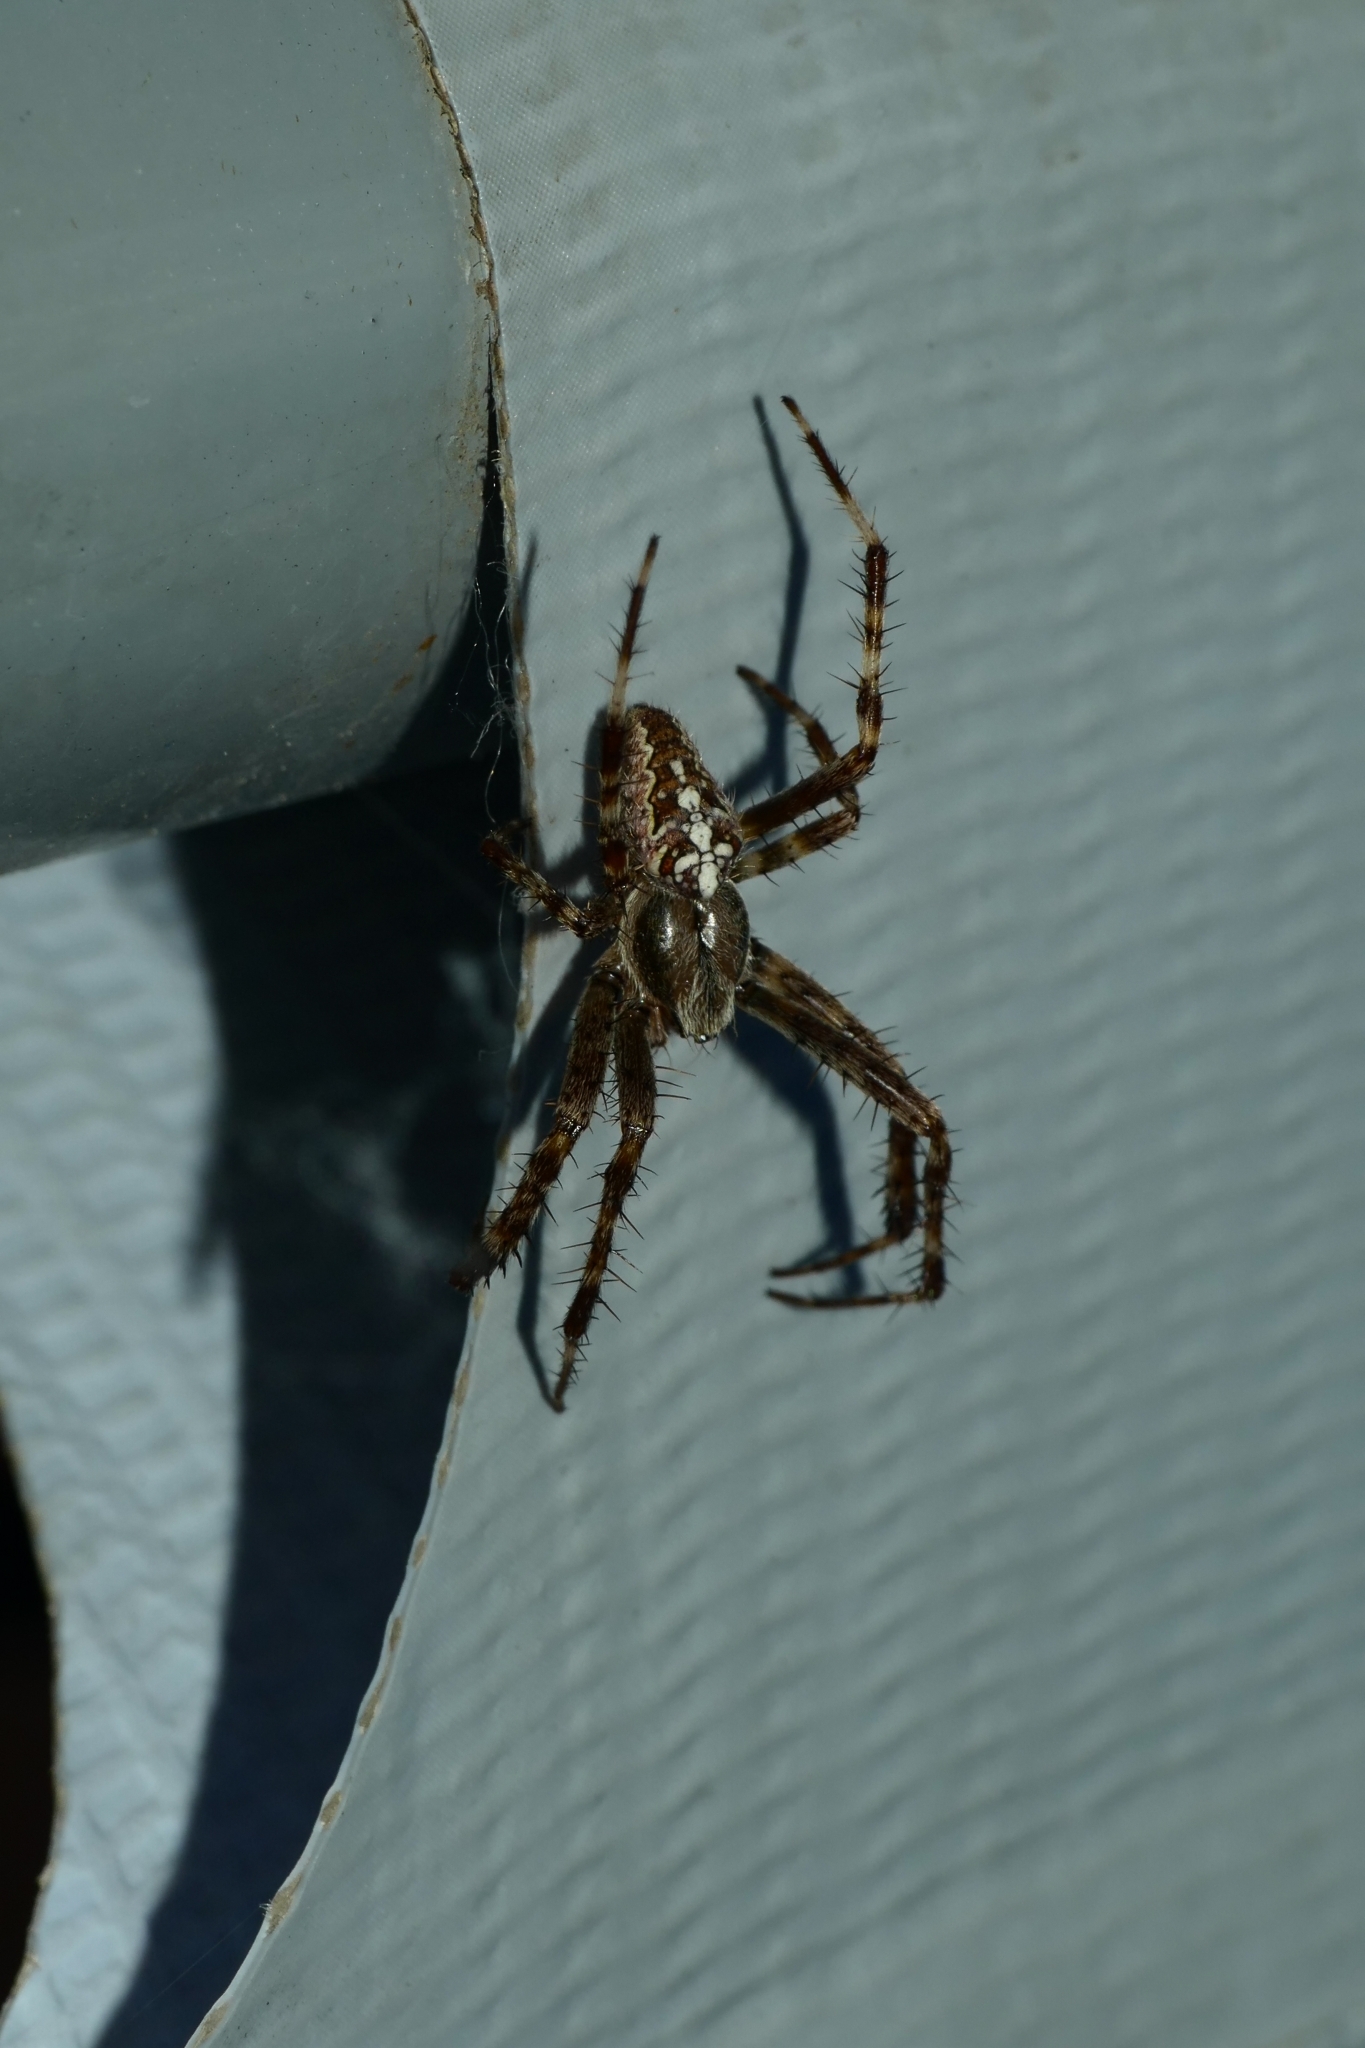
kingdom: Animalia
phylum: Arthropoda
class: Arachnida
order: Araneae
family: Araneidae
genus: Araneus
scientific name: Araneus diadematus
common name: Cross orbweaver
